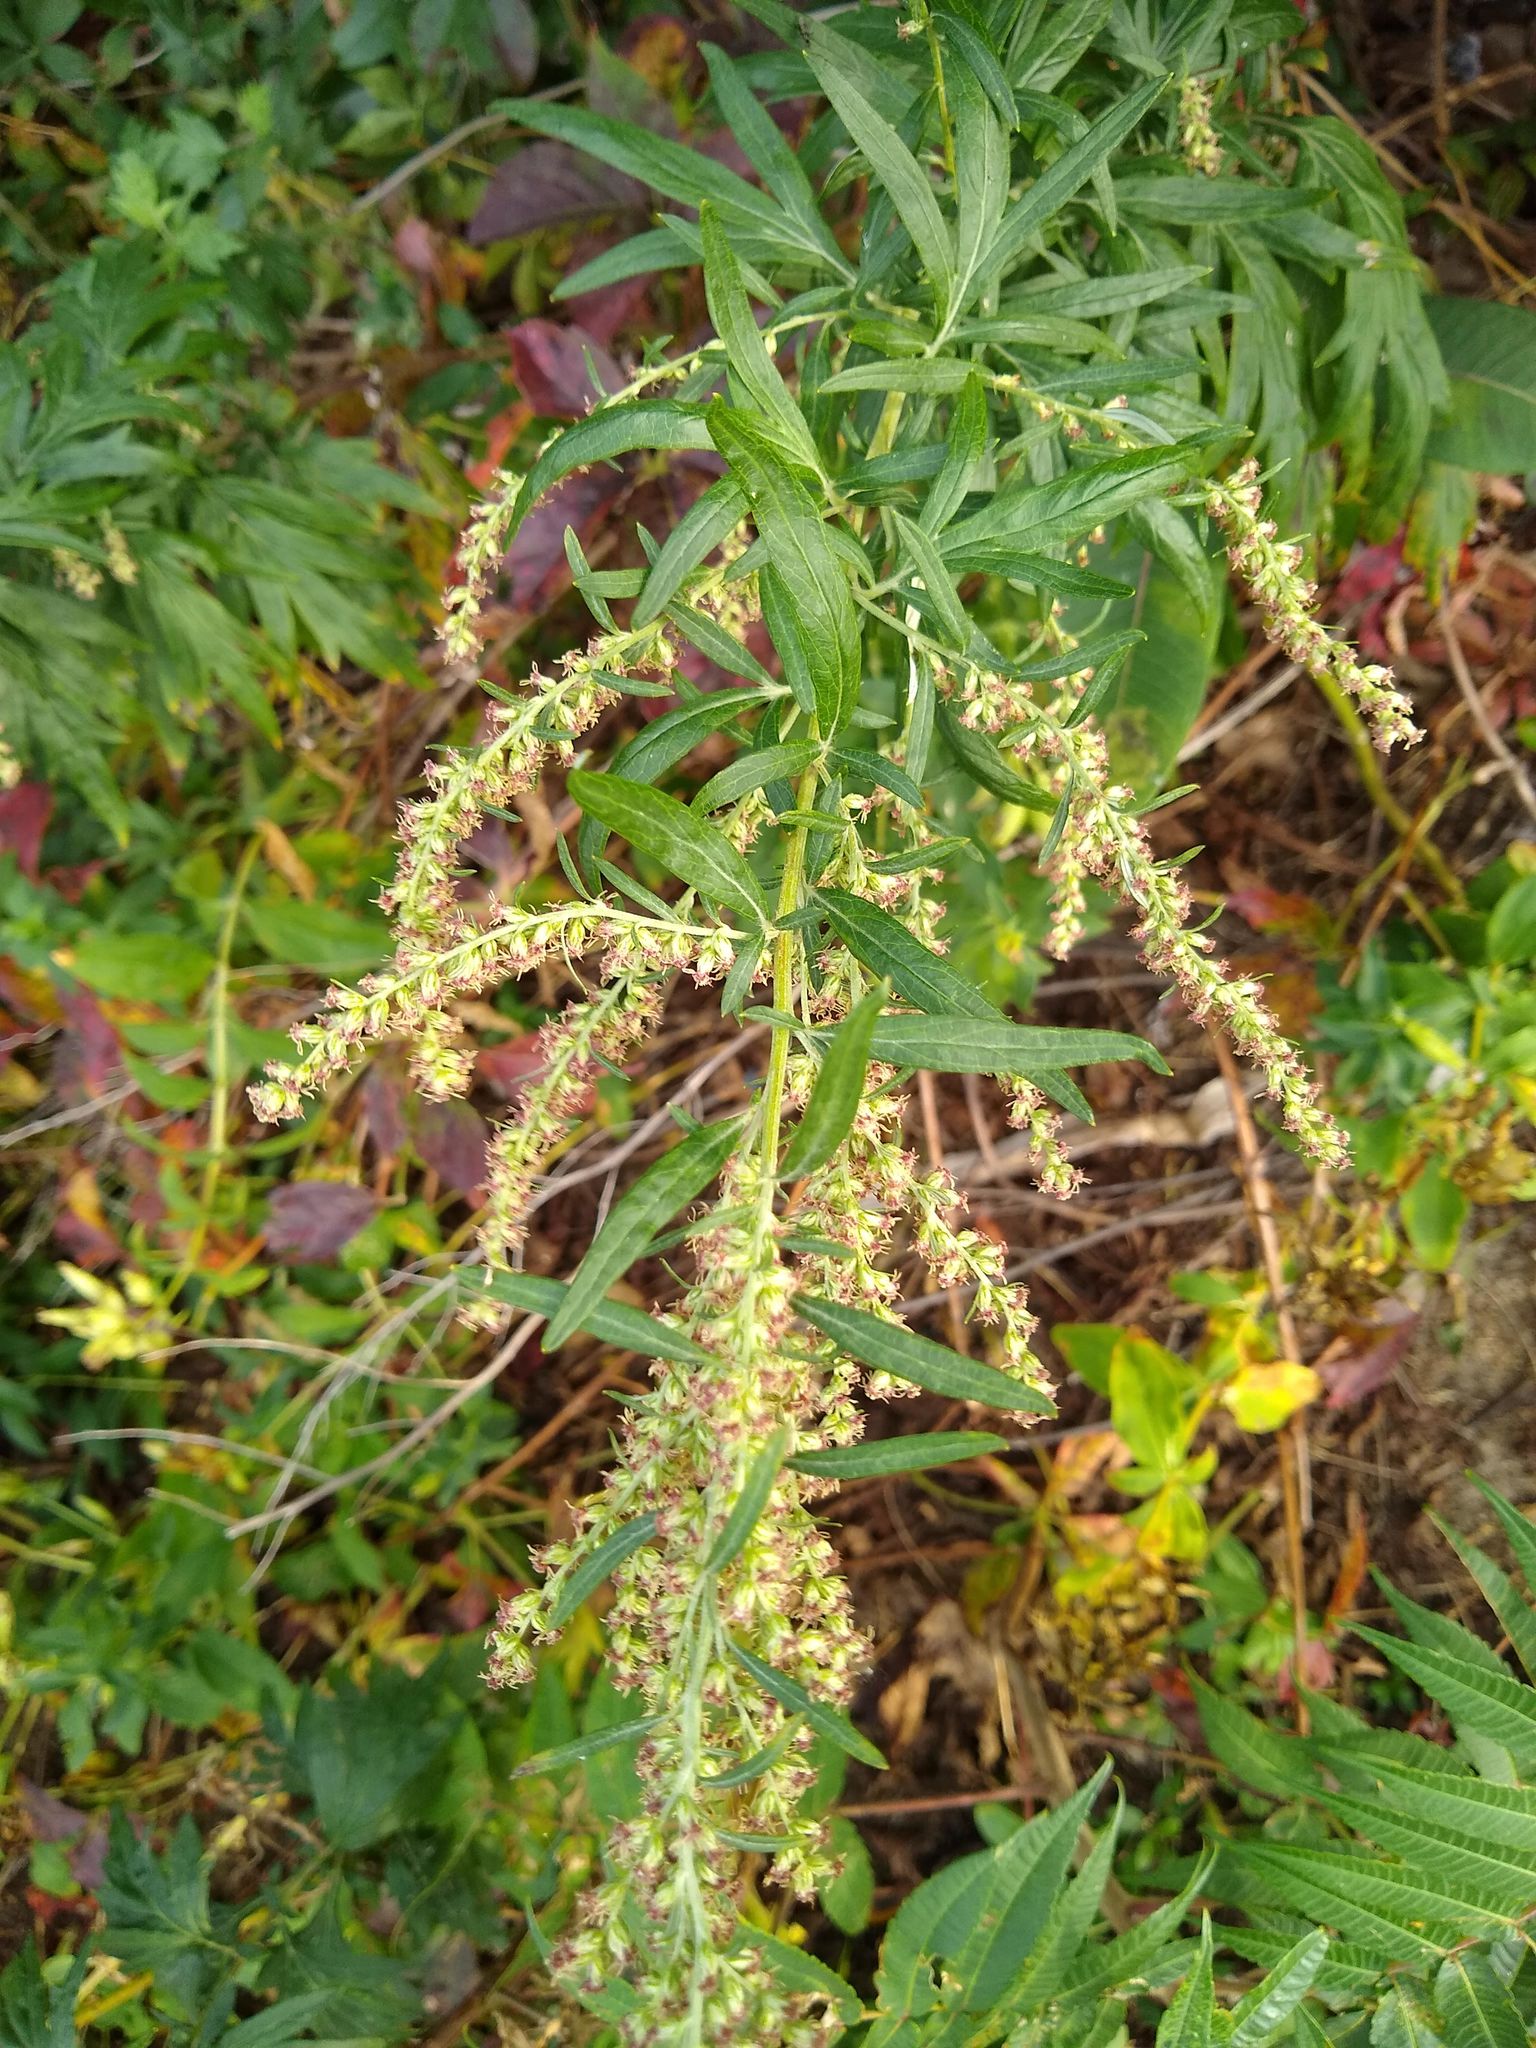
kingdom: Plantae
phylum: Tracheophyta
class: Magnoliopsida
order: Asterales
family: Asteraceae
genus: Artemisia
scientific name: Artemisia vulgaris
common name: Mugwort
